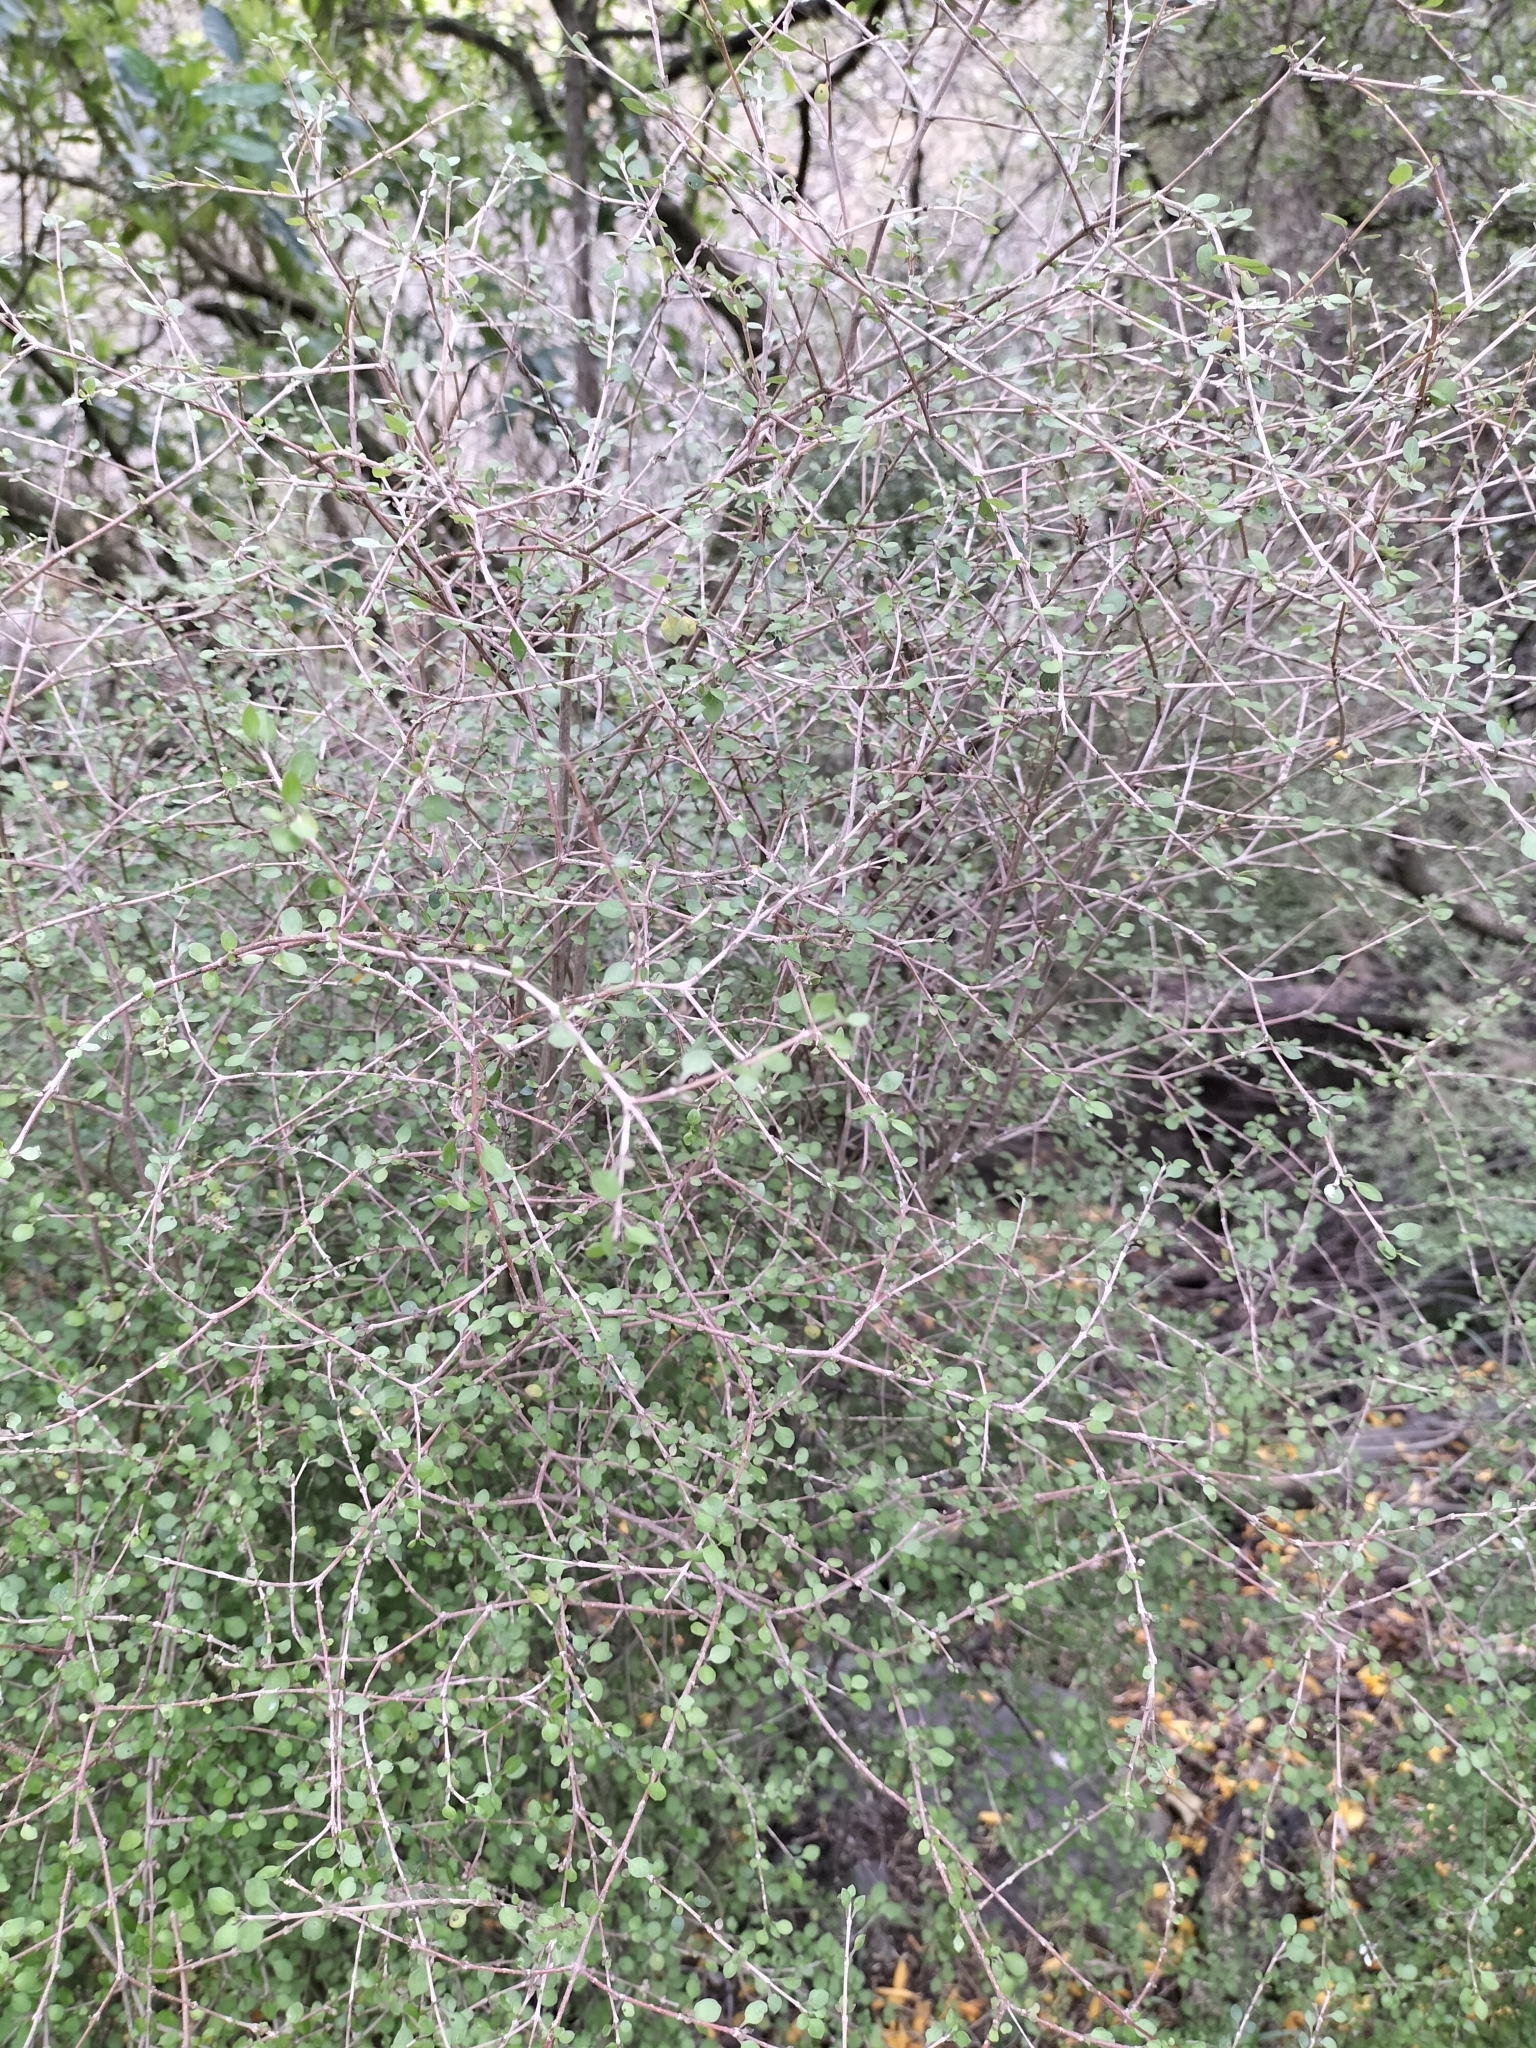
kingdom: Plantae
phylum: Tracheophyta
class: Magnoliopsida
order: Gentianales
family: Rubiaceae
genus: Coprosma
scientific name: Coprosma virescens
